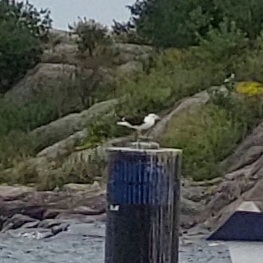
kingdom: Animalia
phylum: Chordata
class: Aves
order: Charadriiformes
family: Laridae
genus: Larus
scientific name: Larus fuscus
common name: Lesser black-backed gull
